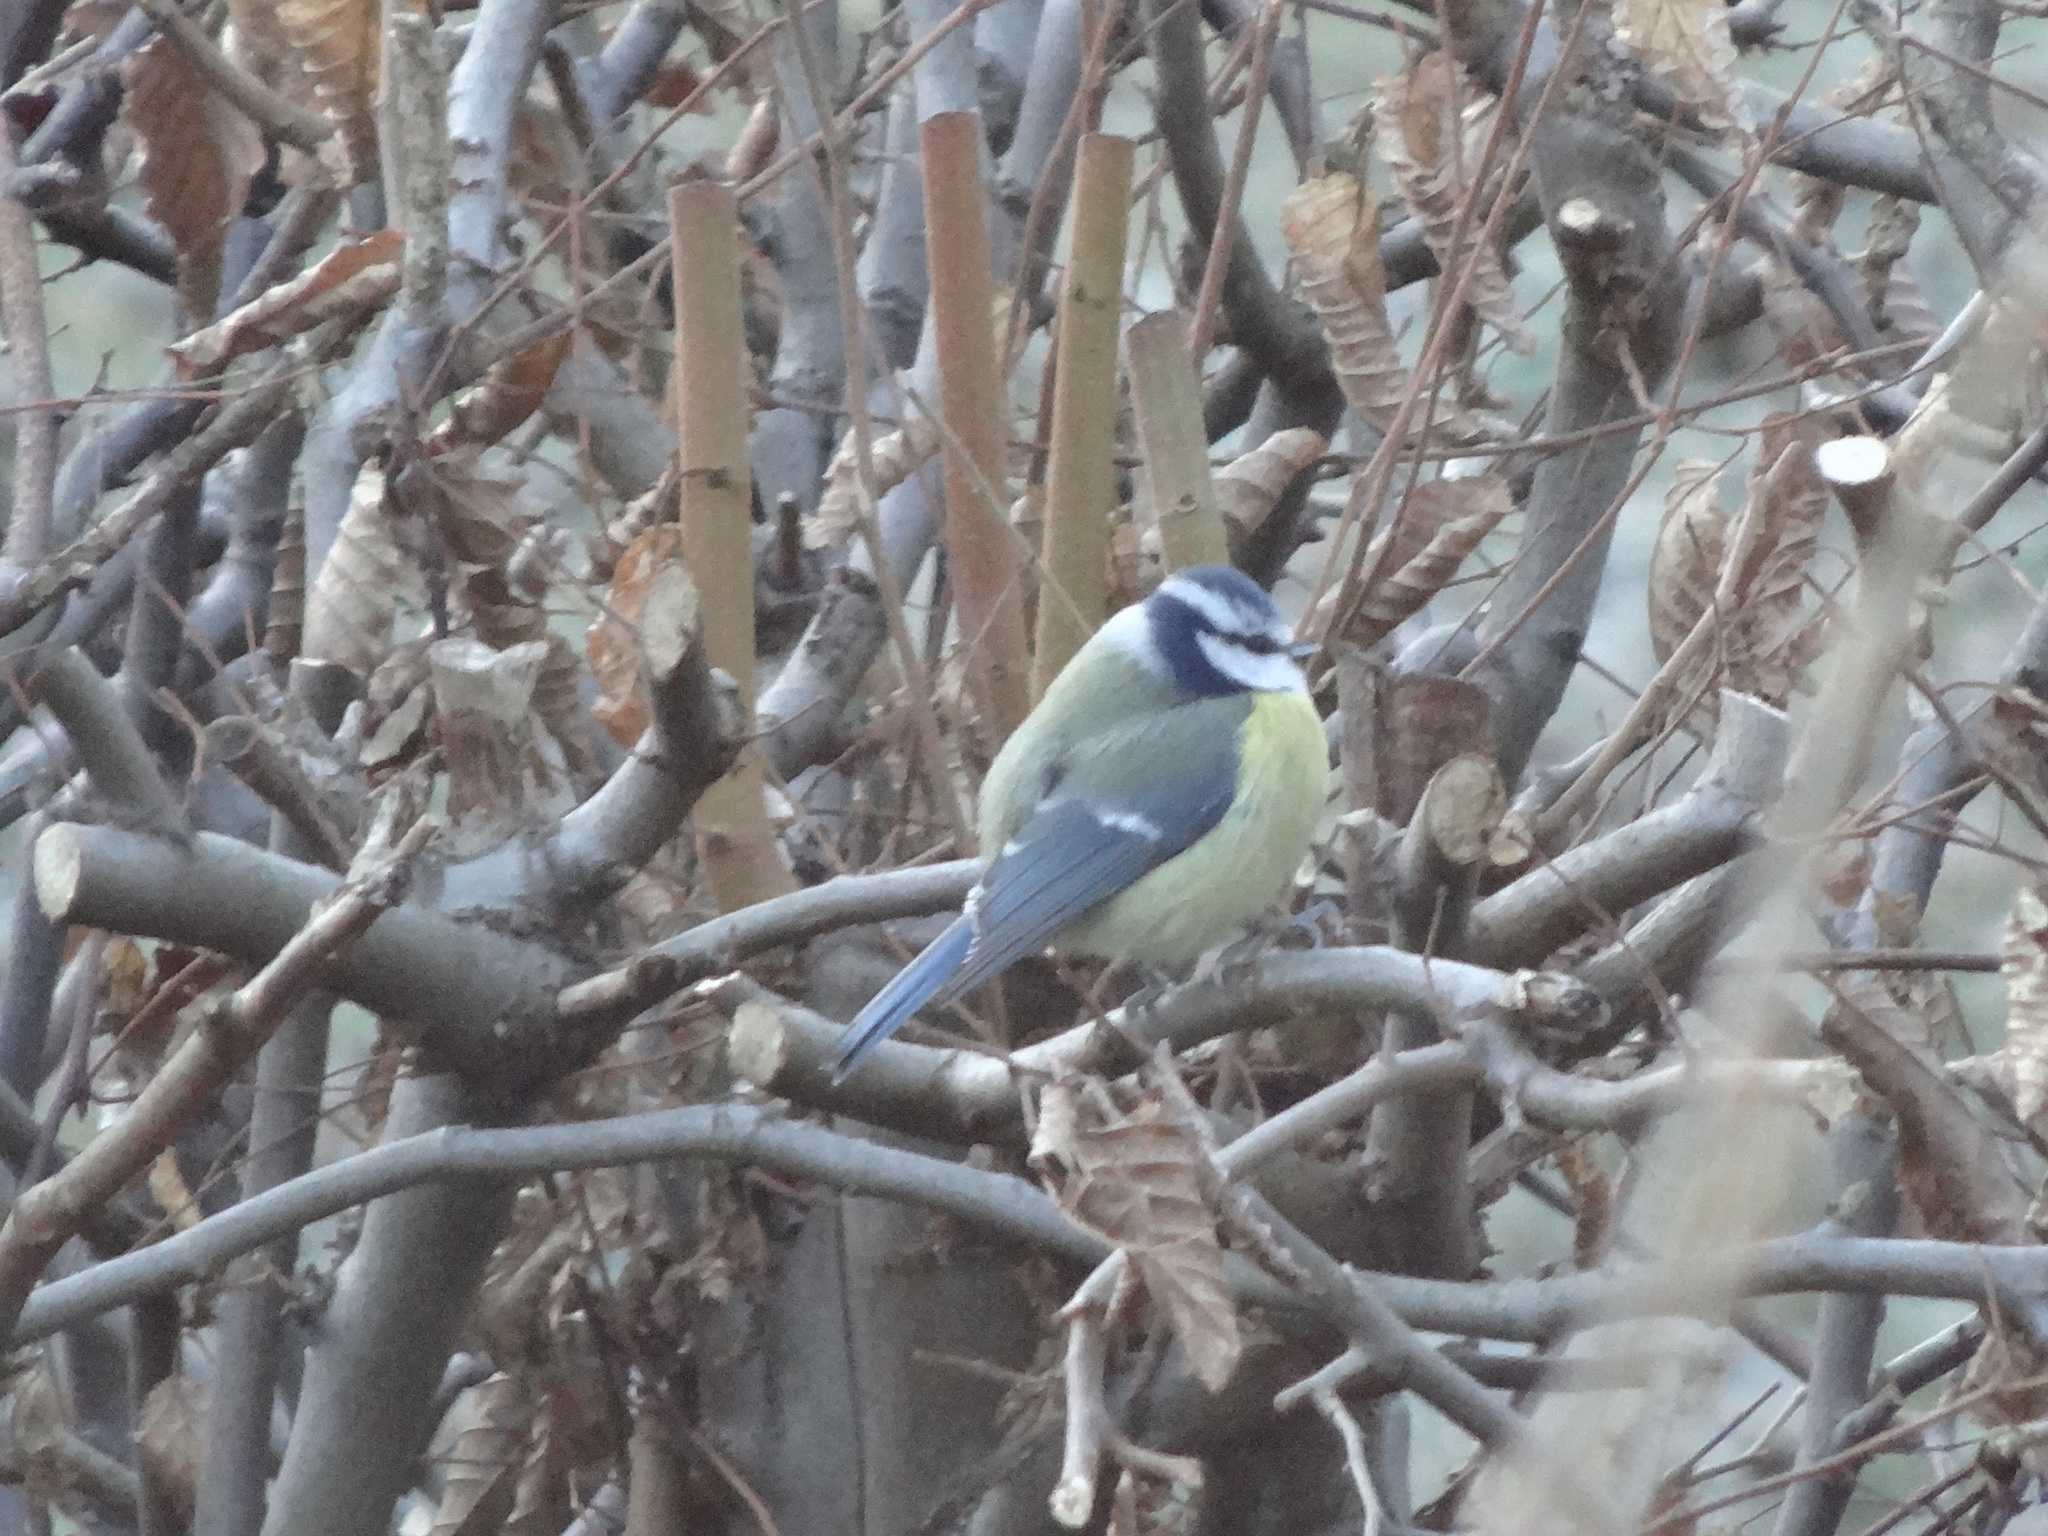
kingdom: Animalia
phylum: Chordata
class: Aves
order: Passeriformes
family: Paridae
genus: Cyanistes
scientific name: Cyanistes caeruleus
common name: Eurasian blue tit
